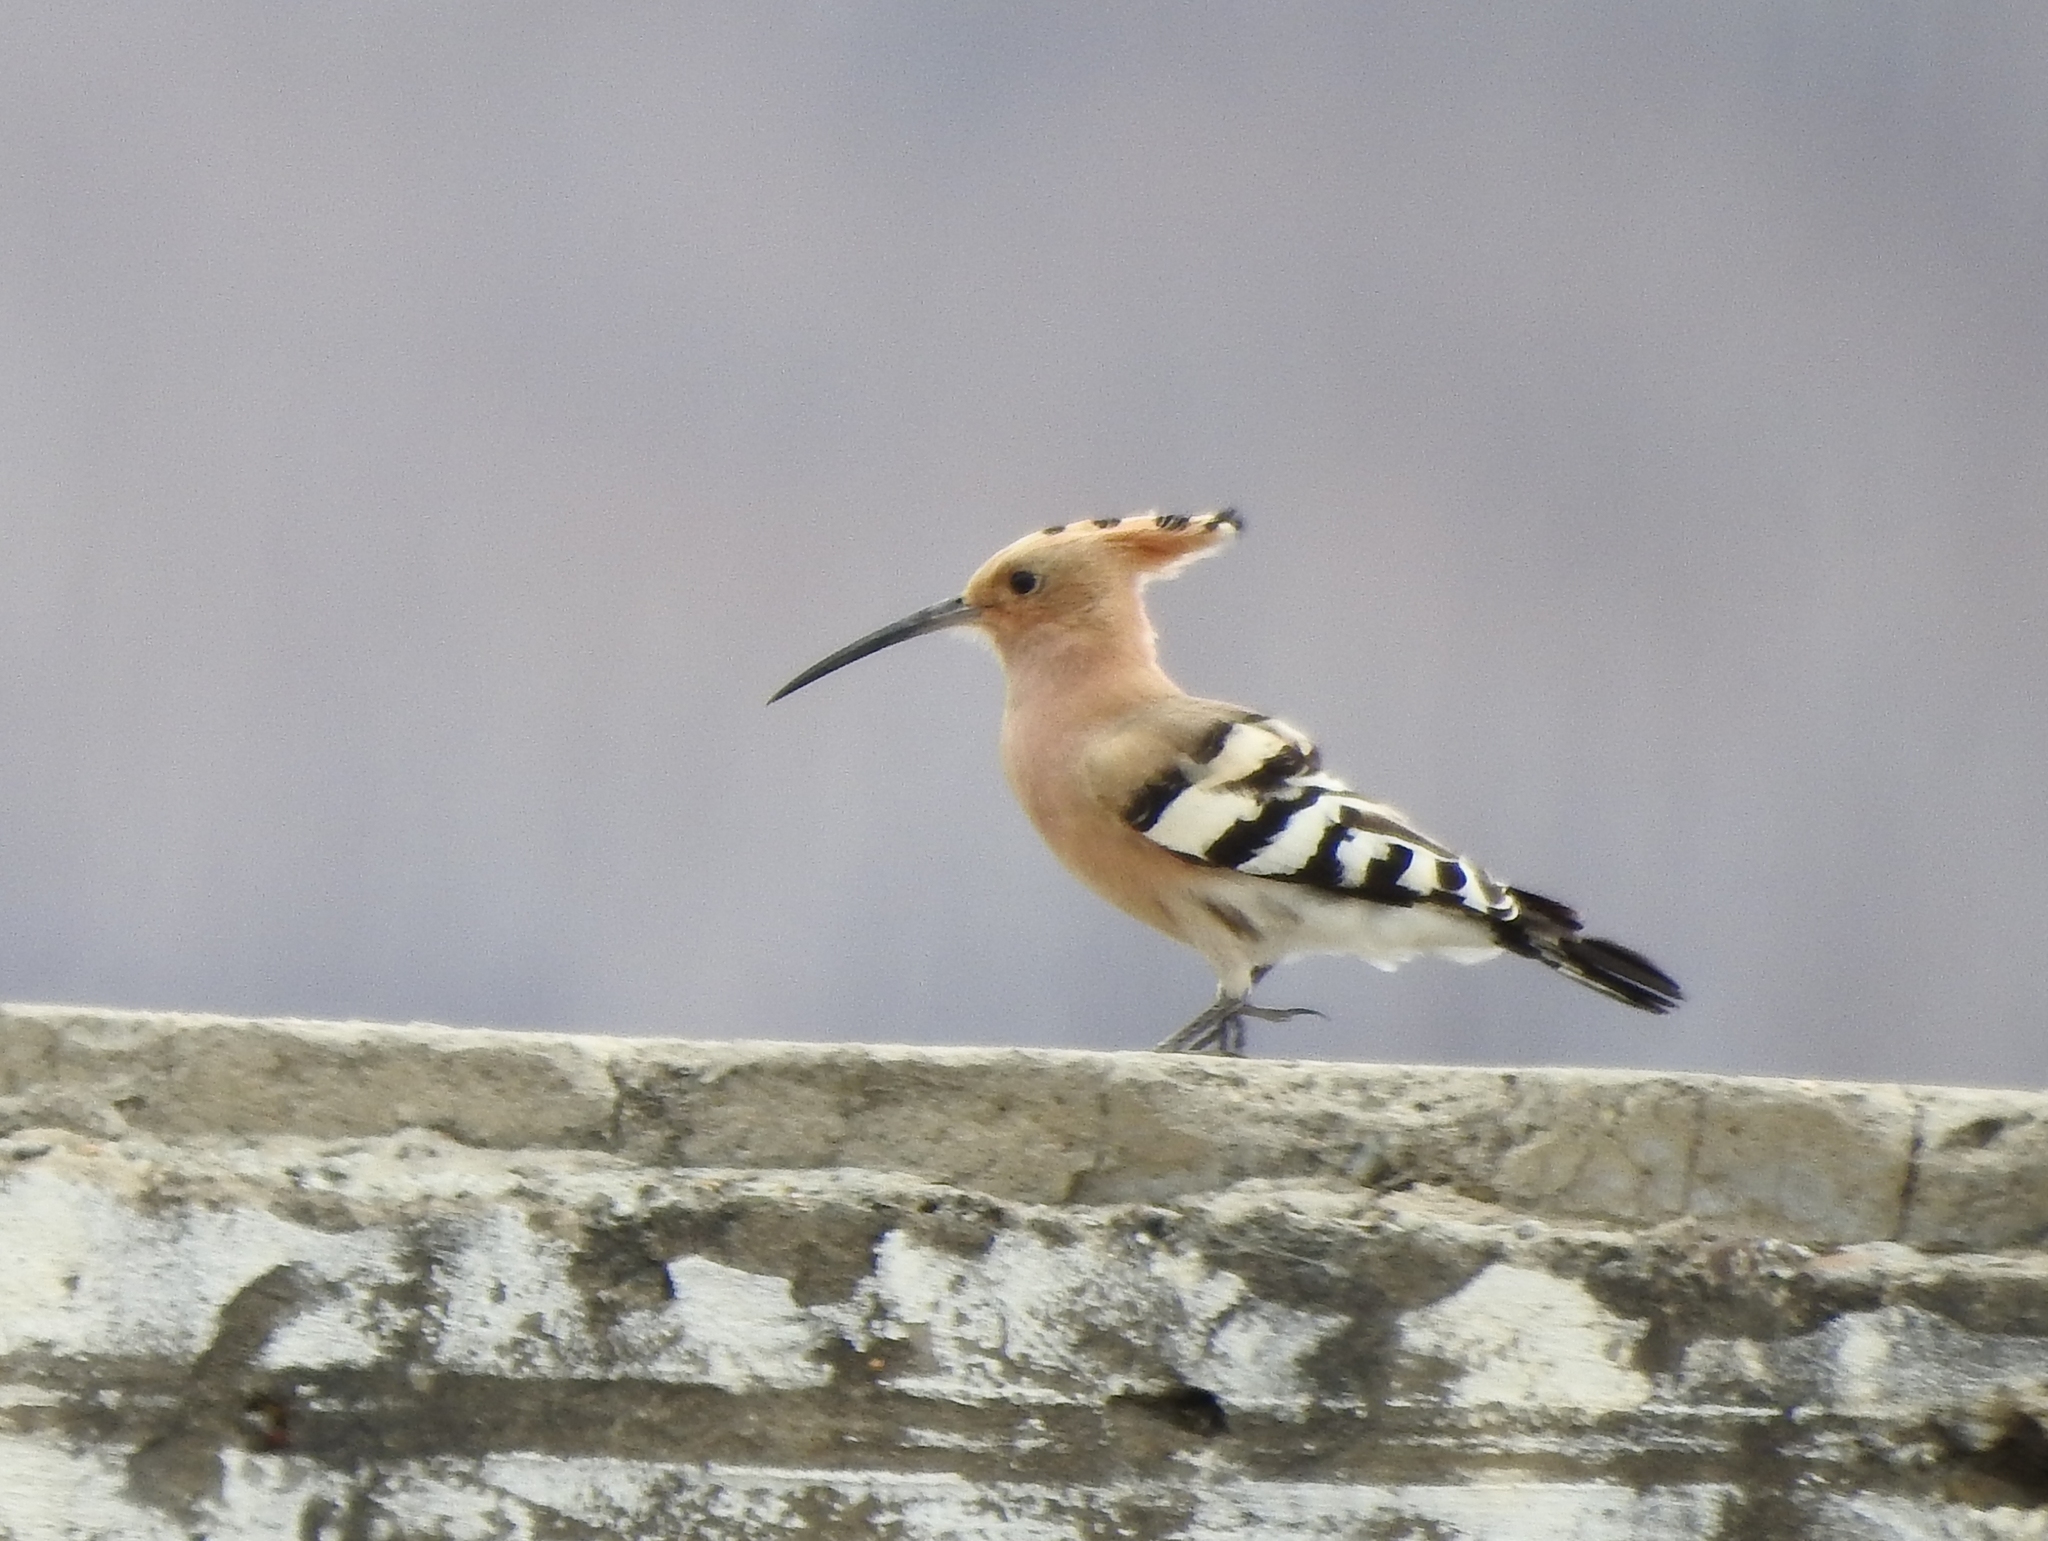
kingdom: Animalia
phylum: Chordata
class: Aves
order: Bucerotiformes
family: Upupidae
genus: Upupa
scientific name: Upupa epops
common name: Eurasian hoopoe
